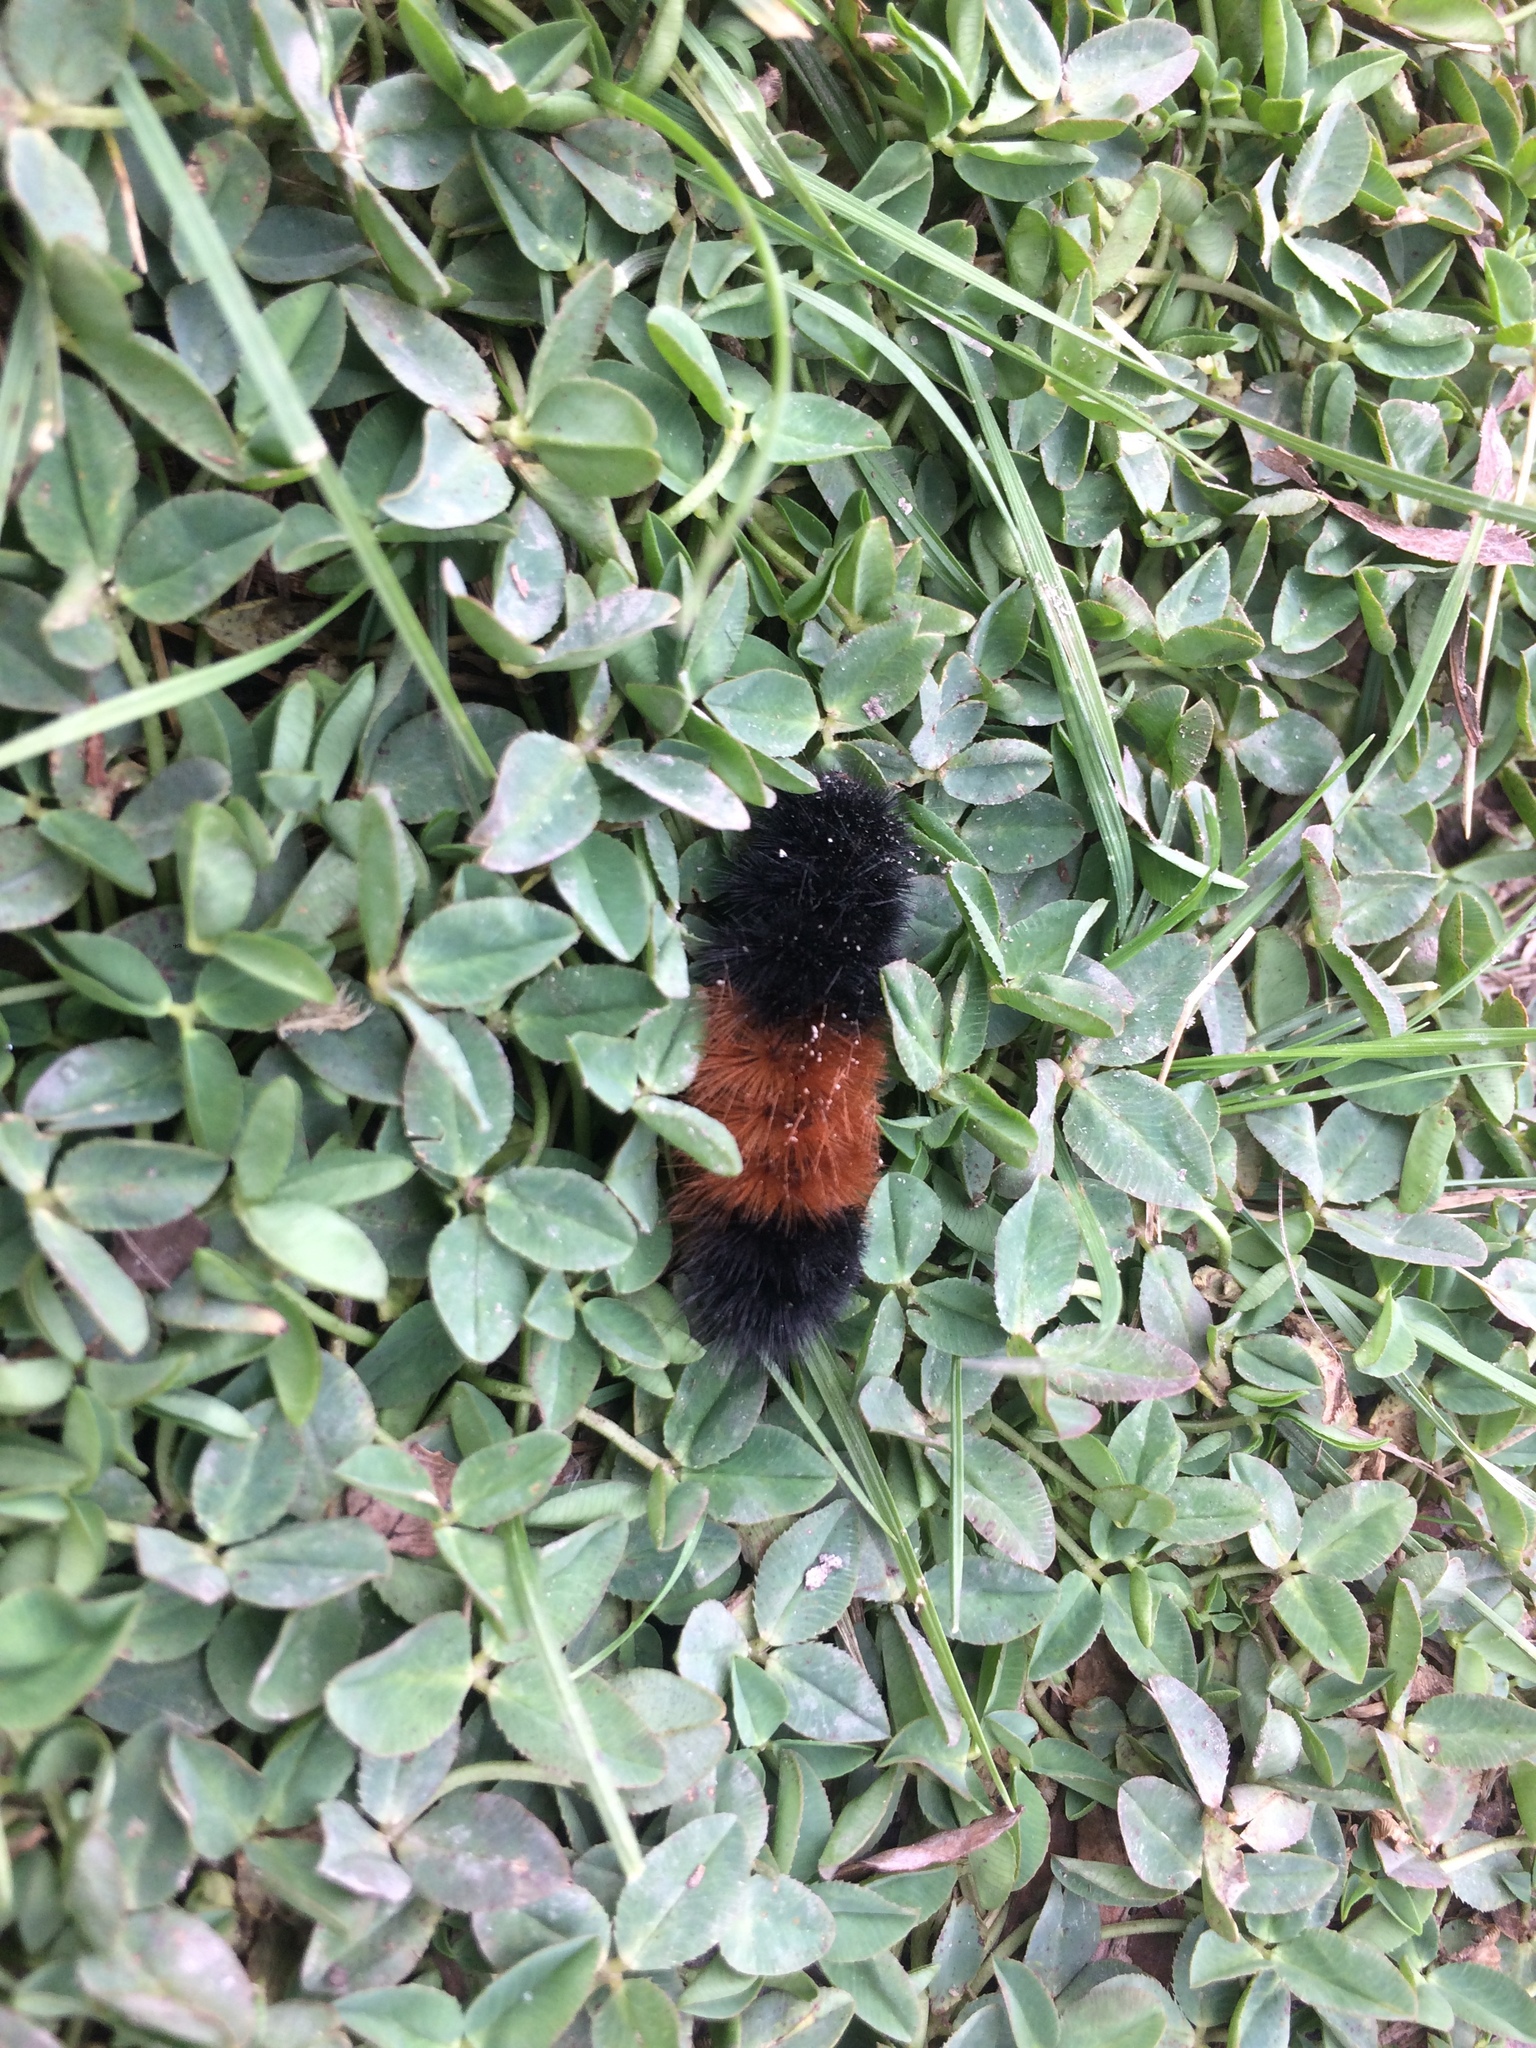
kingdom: Animalia
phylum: Arthropoda
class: Insecta
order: Lepidoptera
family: Erebidae
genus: Pyrrharctia
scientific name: Pyrrharctia isabella
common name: Isabella tiger moth
